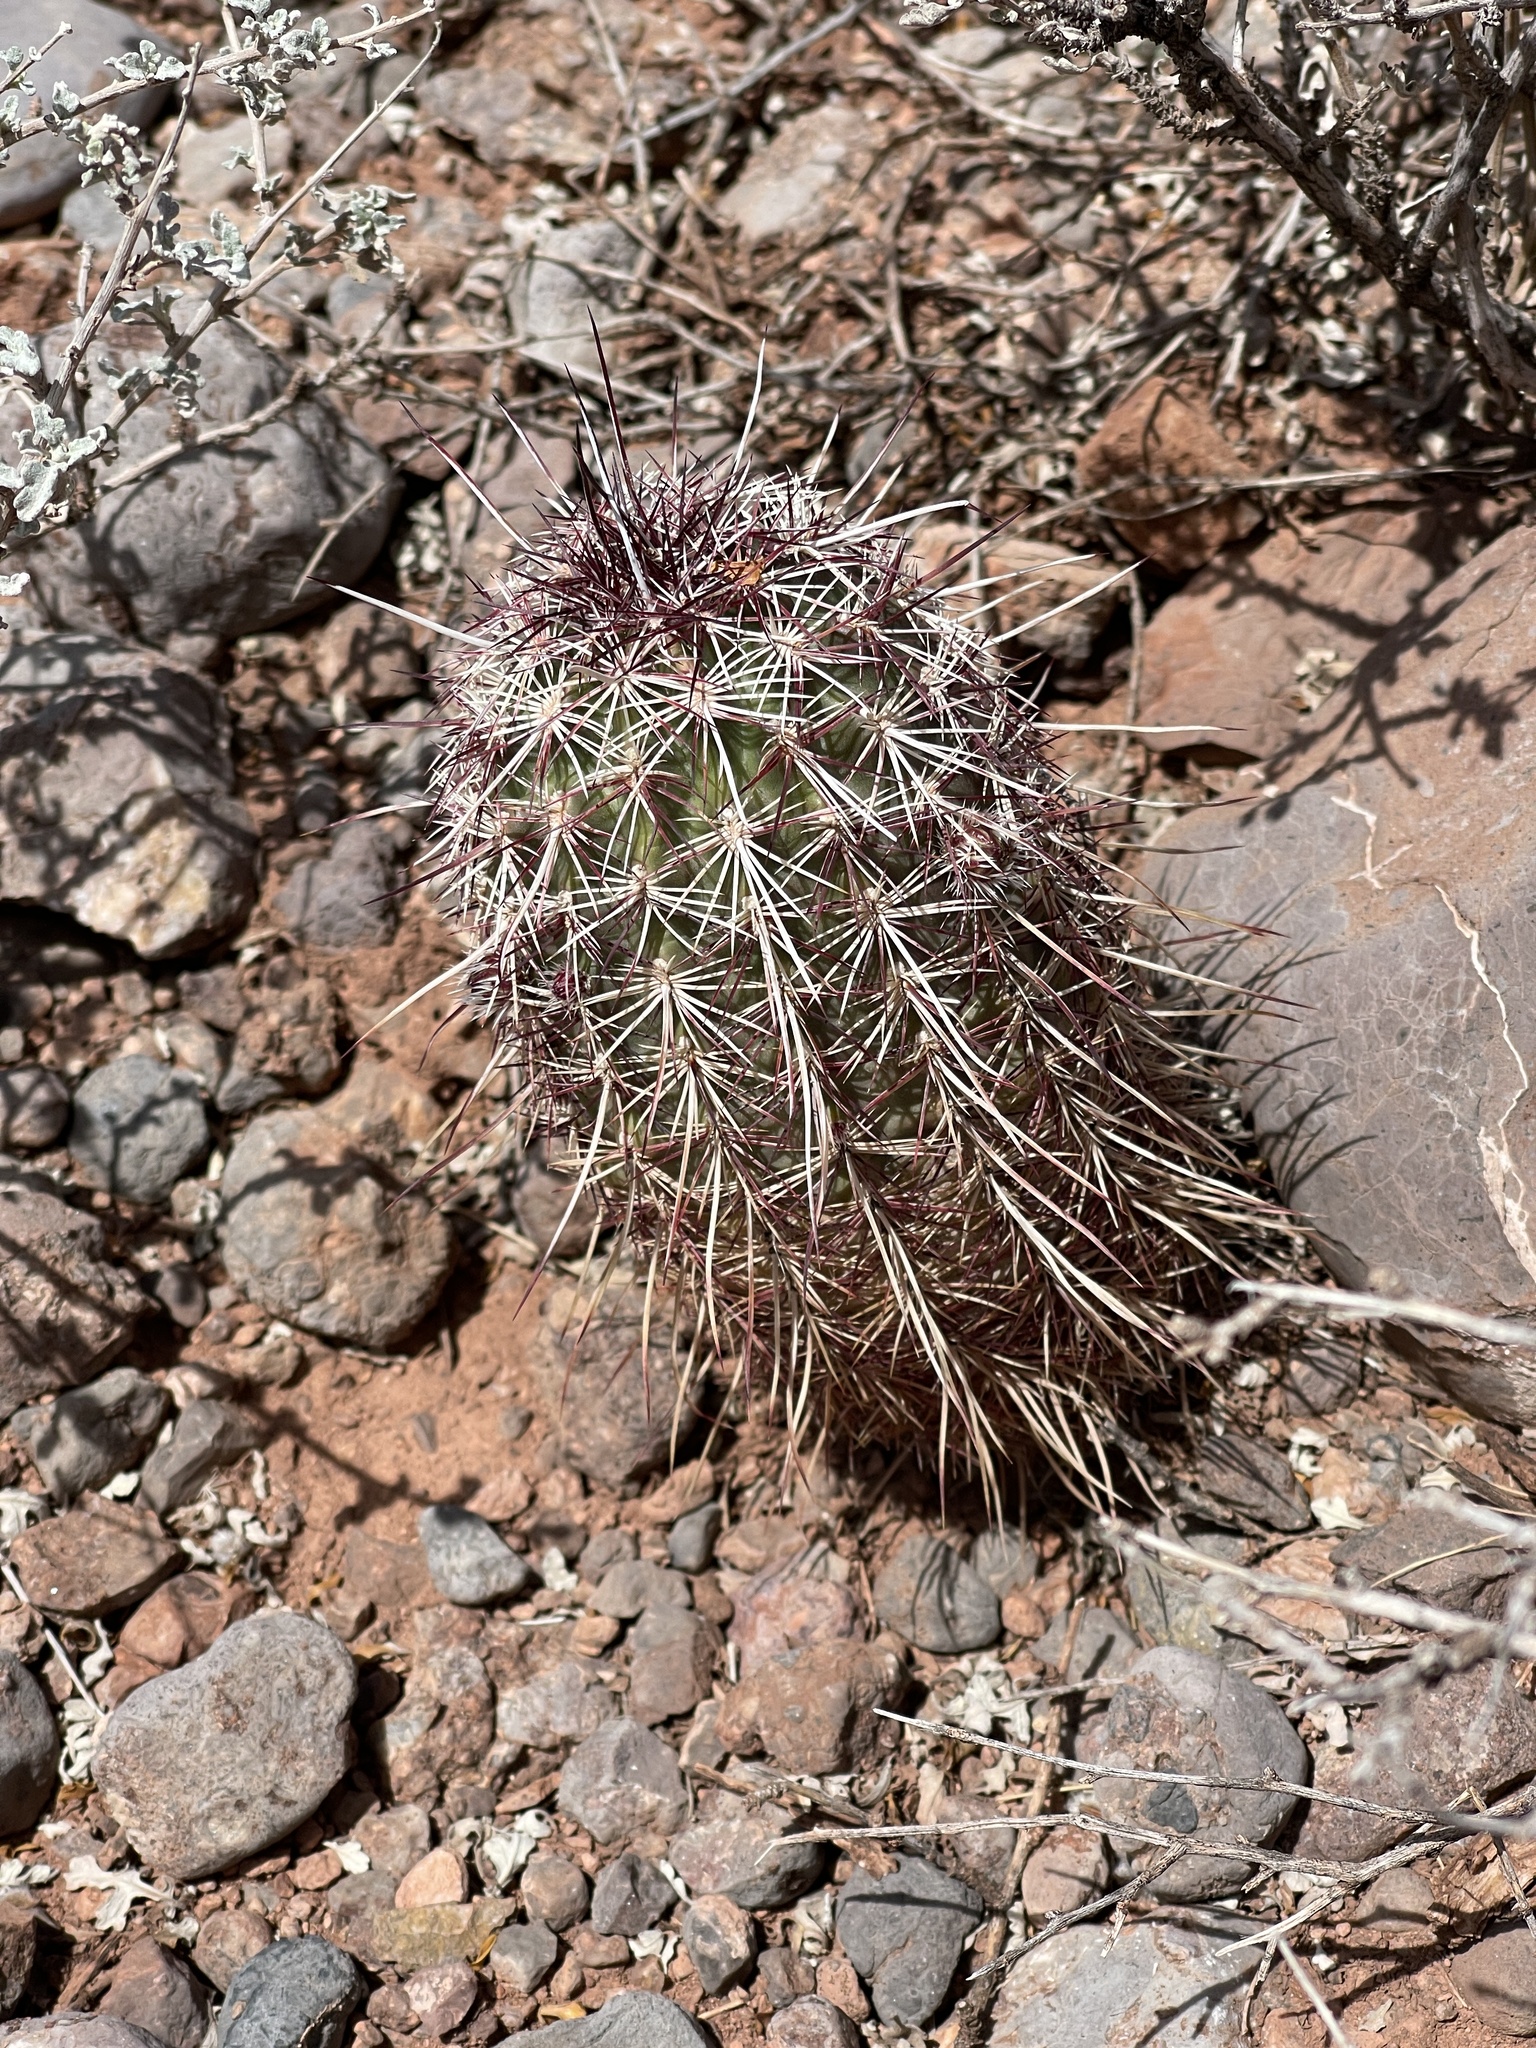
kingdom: Plantae
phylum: Tracheophyta
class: Magnoliopsida
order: Caryophyllales
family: Cactaceae
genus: Echinocereus
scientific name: Echinocereus viridiflorus
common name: Nylon hedgehog cactus
